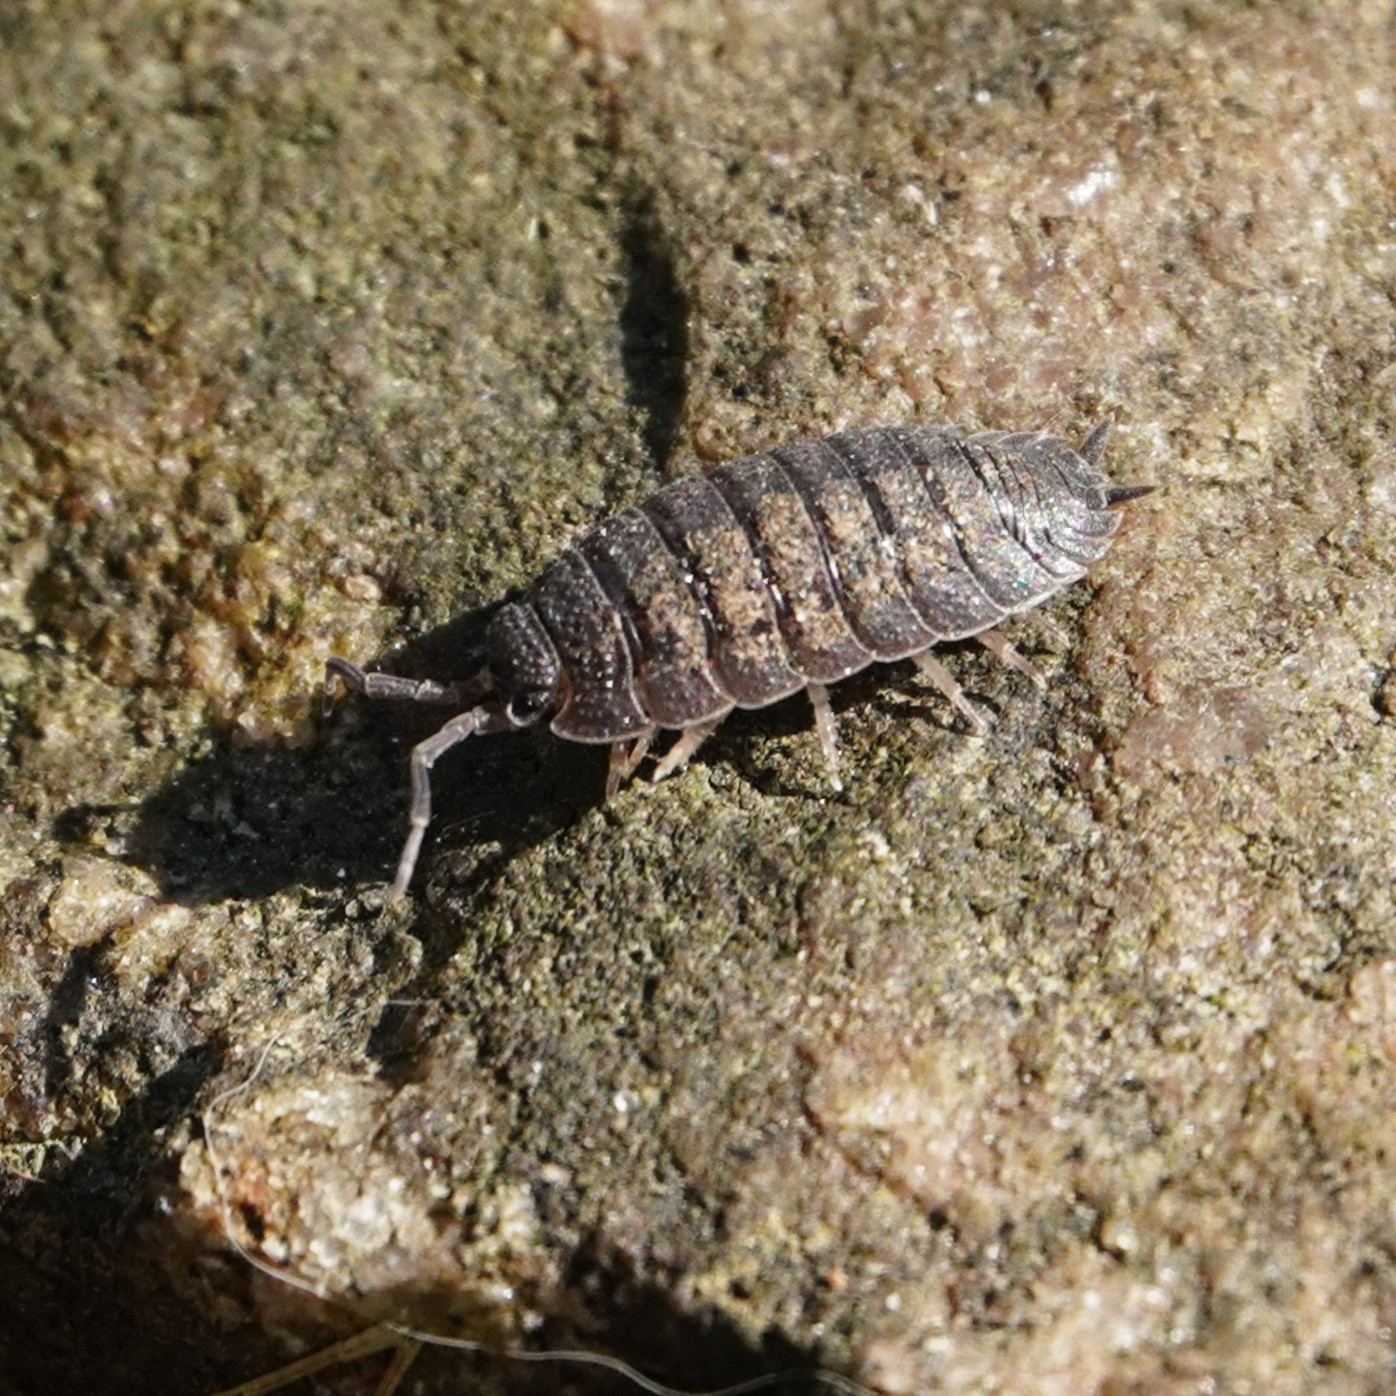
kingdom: Animalia
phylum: Arthropoda
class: Malacostraca
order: Isopoda
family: Porcellionidae
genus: Porcellio
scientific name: Porcellio scaber
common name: Common rough woodlouse
